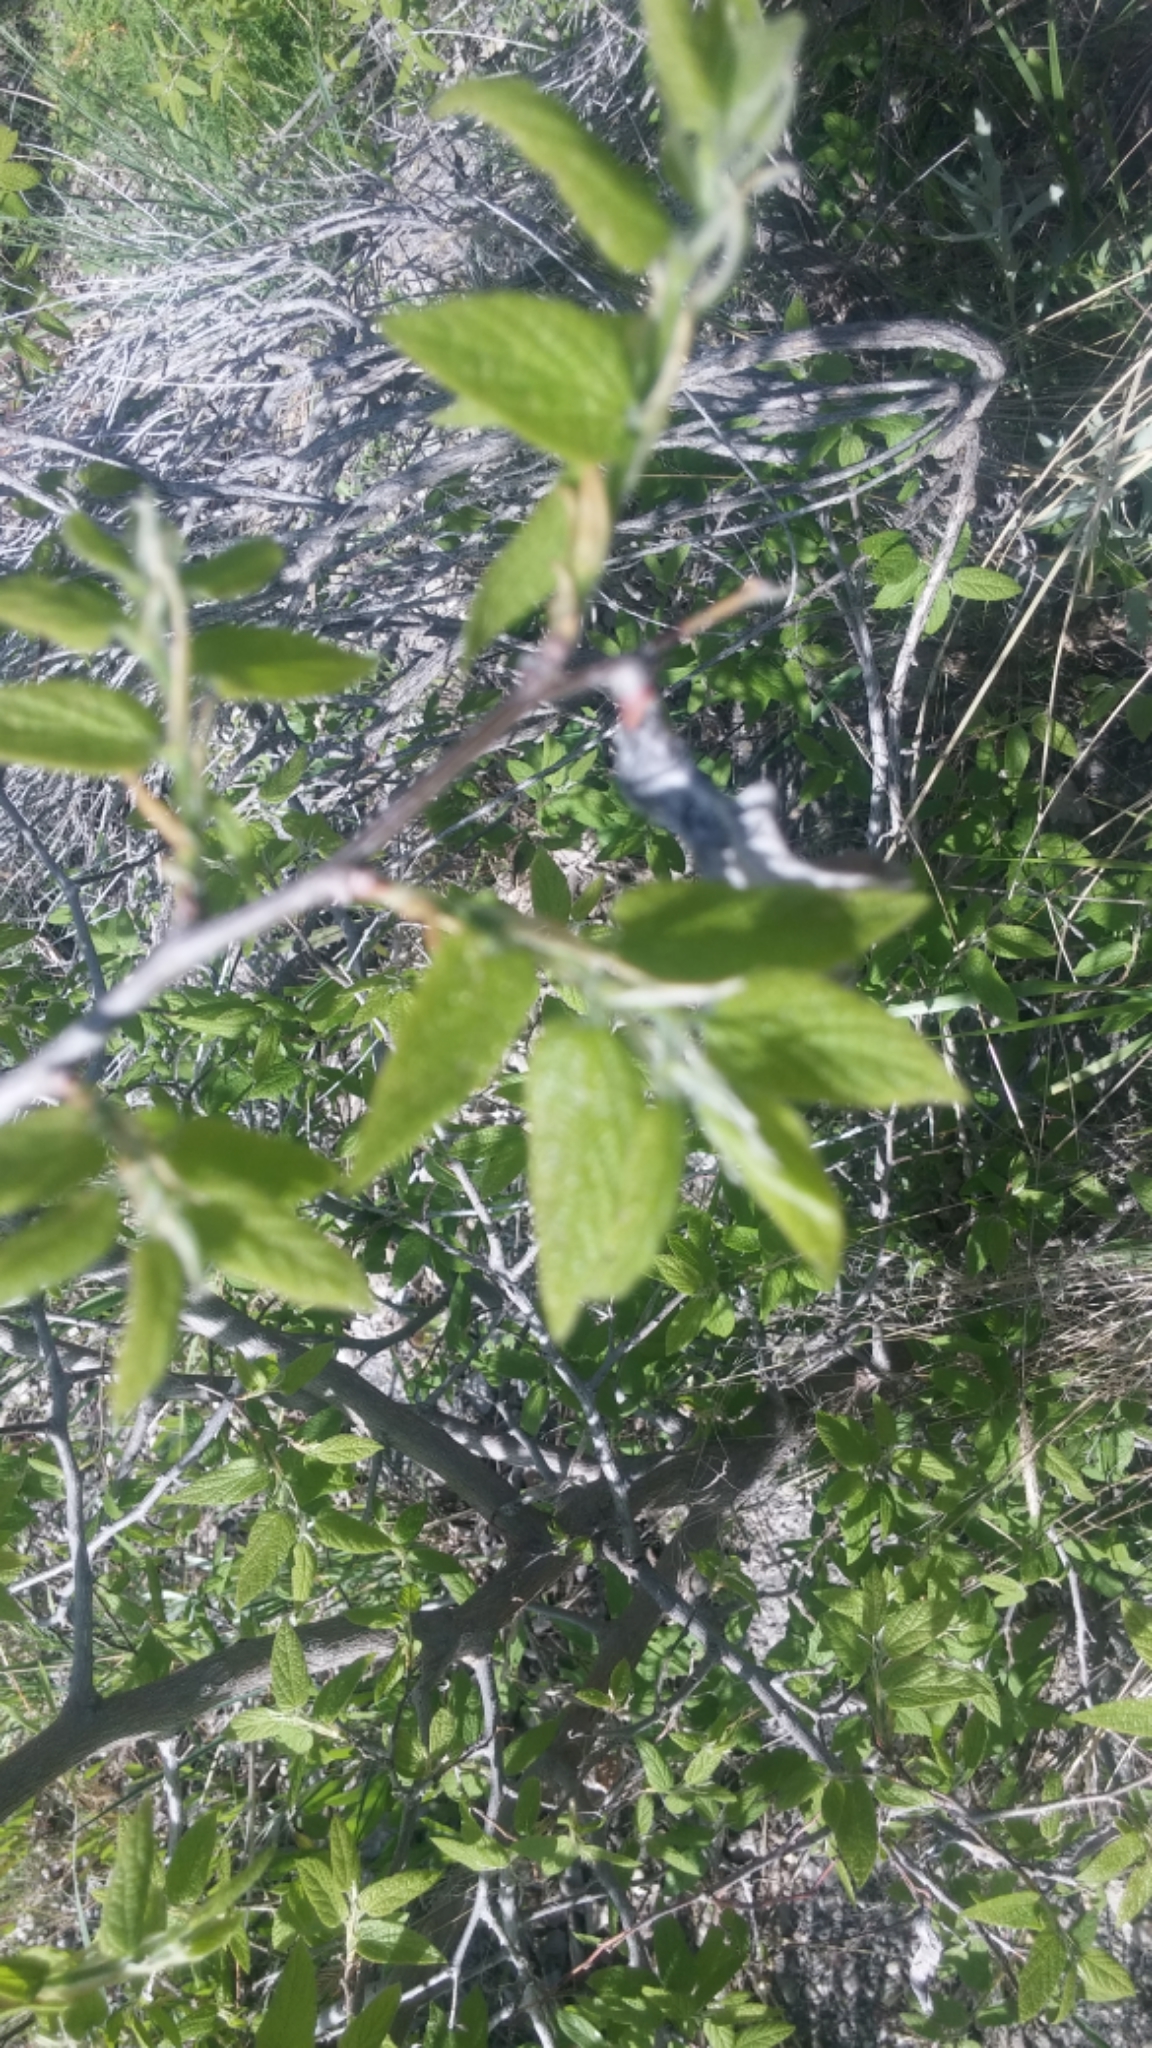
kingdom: Plantae
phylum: Tracheophyta
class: Magnoliopsida
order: Rosales
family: Cannabaceae
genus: Celtis
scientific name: Celtis reticulata
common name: Netleaf hackberry
